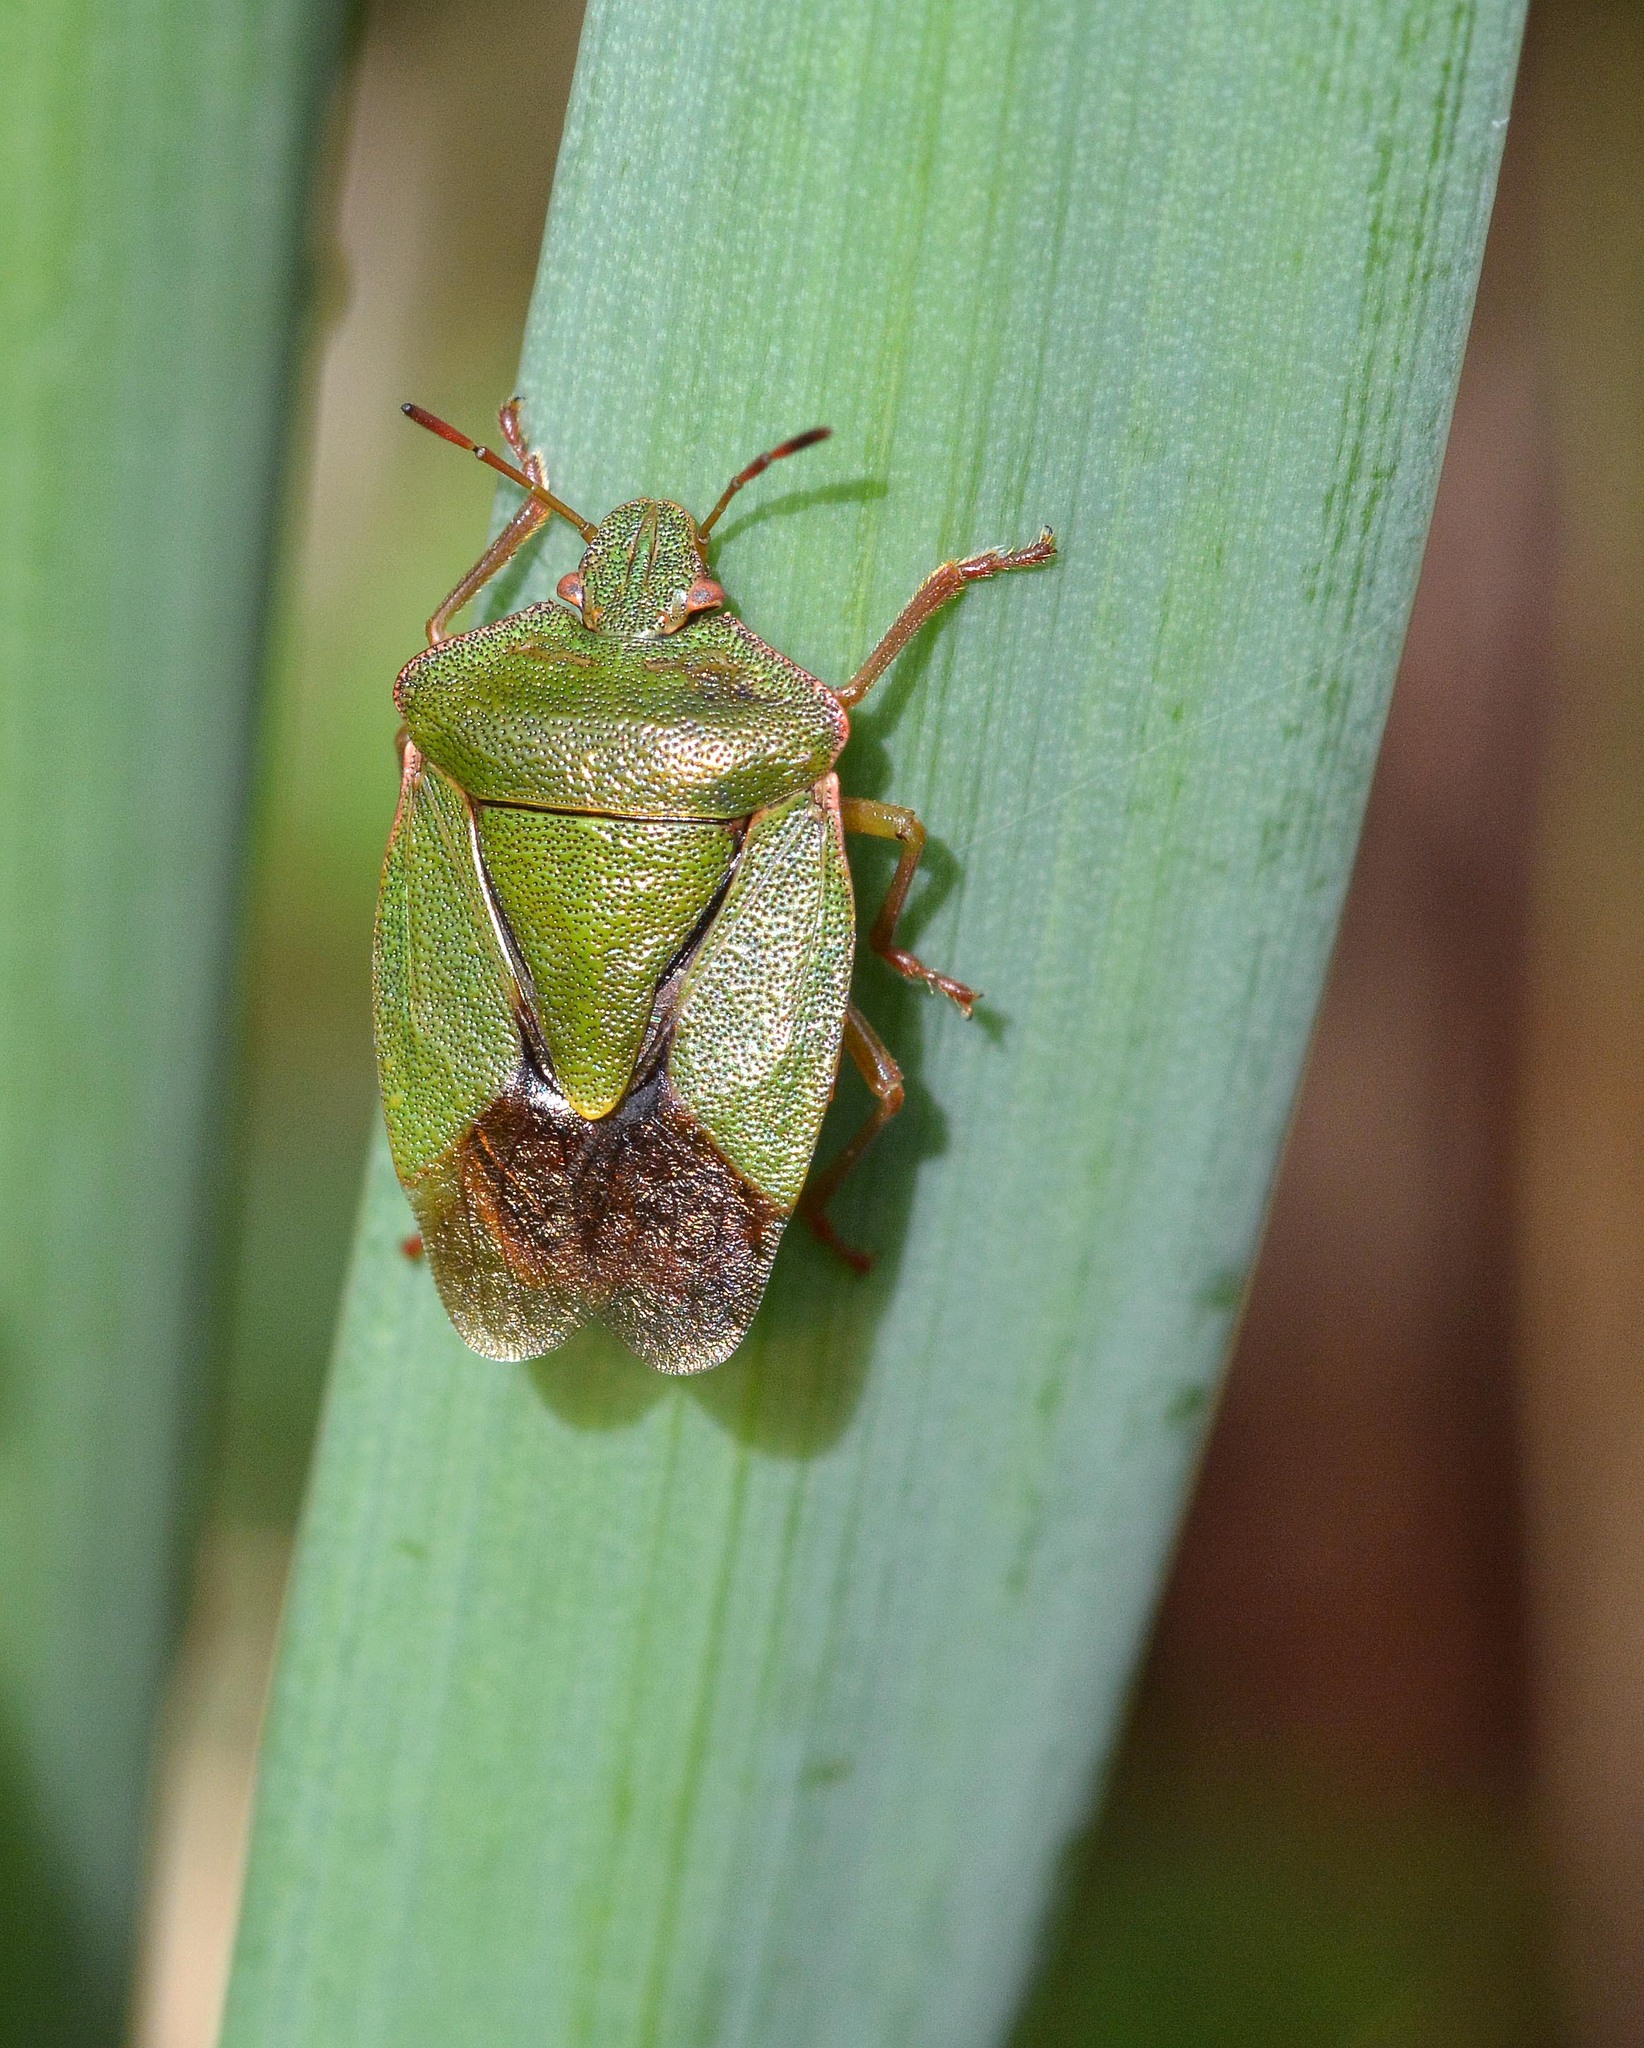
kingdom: Animalia
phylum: Arthropoda
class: Insecta
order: Hemiptera
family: Pentatomidae
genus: Palomena
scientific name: Palomena prasina
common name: Green shieldbug
